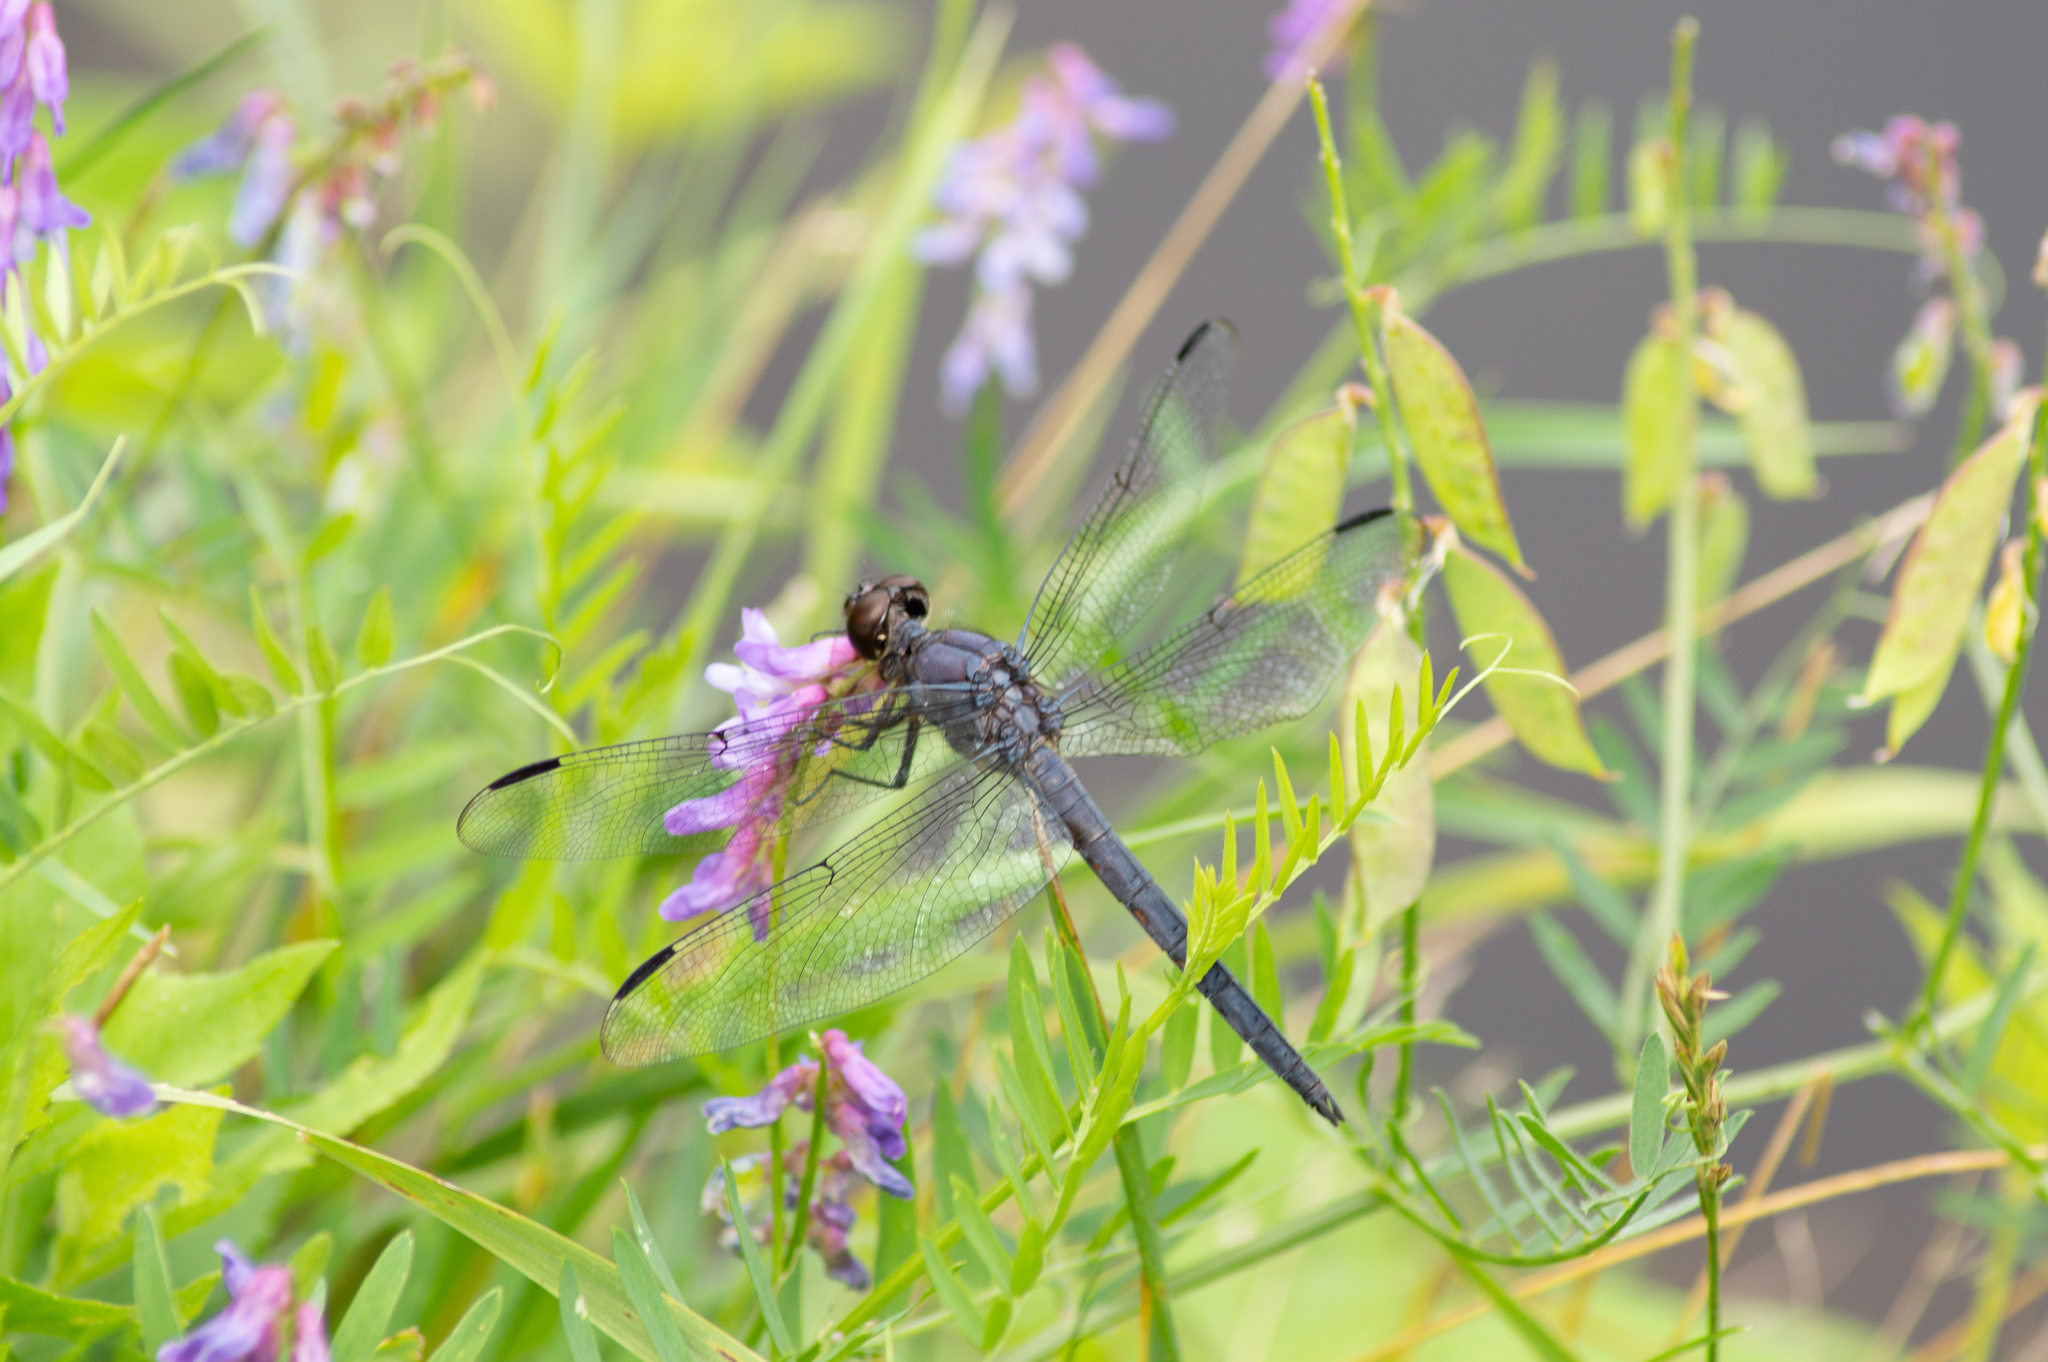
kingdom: Animalia
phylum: Arthropoda
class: Insecta
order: Odonata
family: Libellulidae
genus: Libellula
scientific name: Libellula incesta
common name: Slaty skimmer
